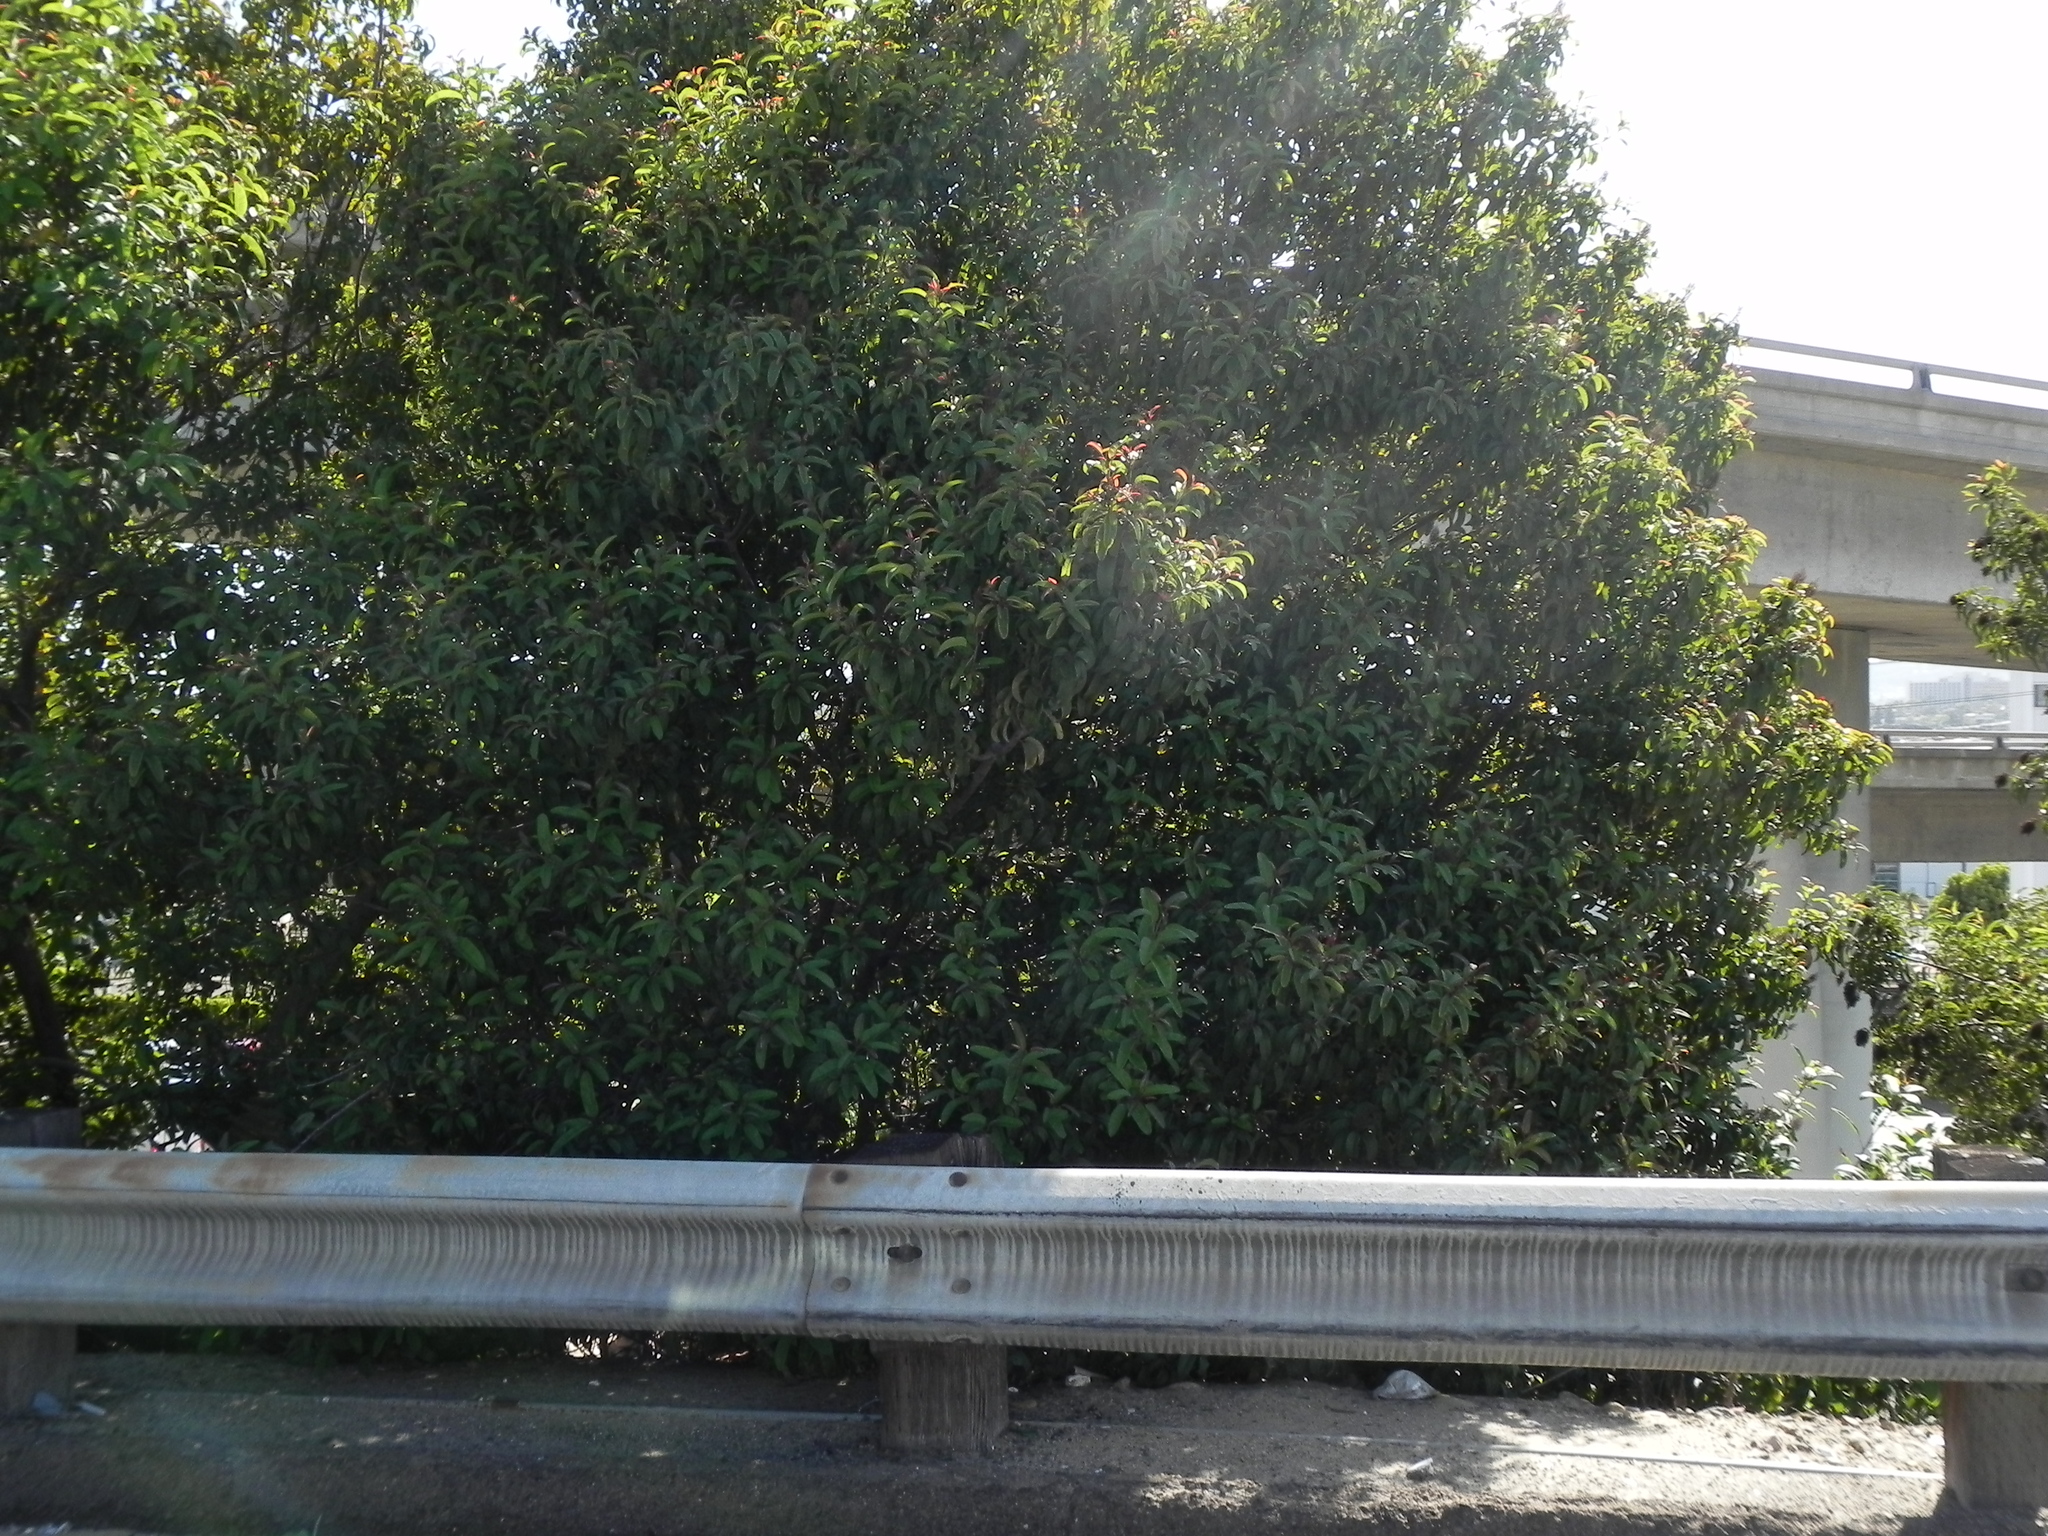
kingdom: Plantae
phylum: Tracheophyta
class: Magnoliopsida
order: Sapindales
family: Anacardiaceae
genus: Malosma
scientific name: Malosma laurina
